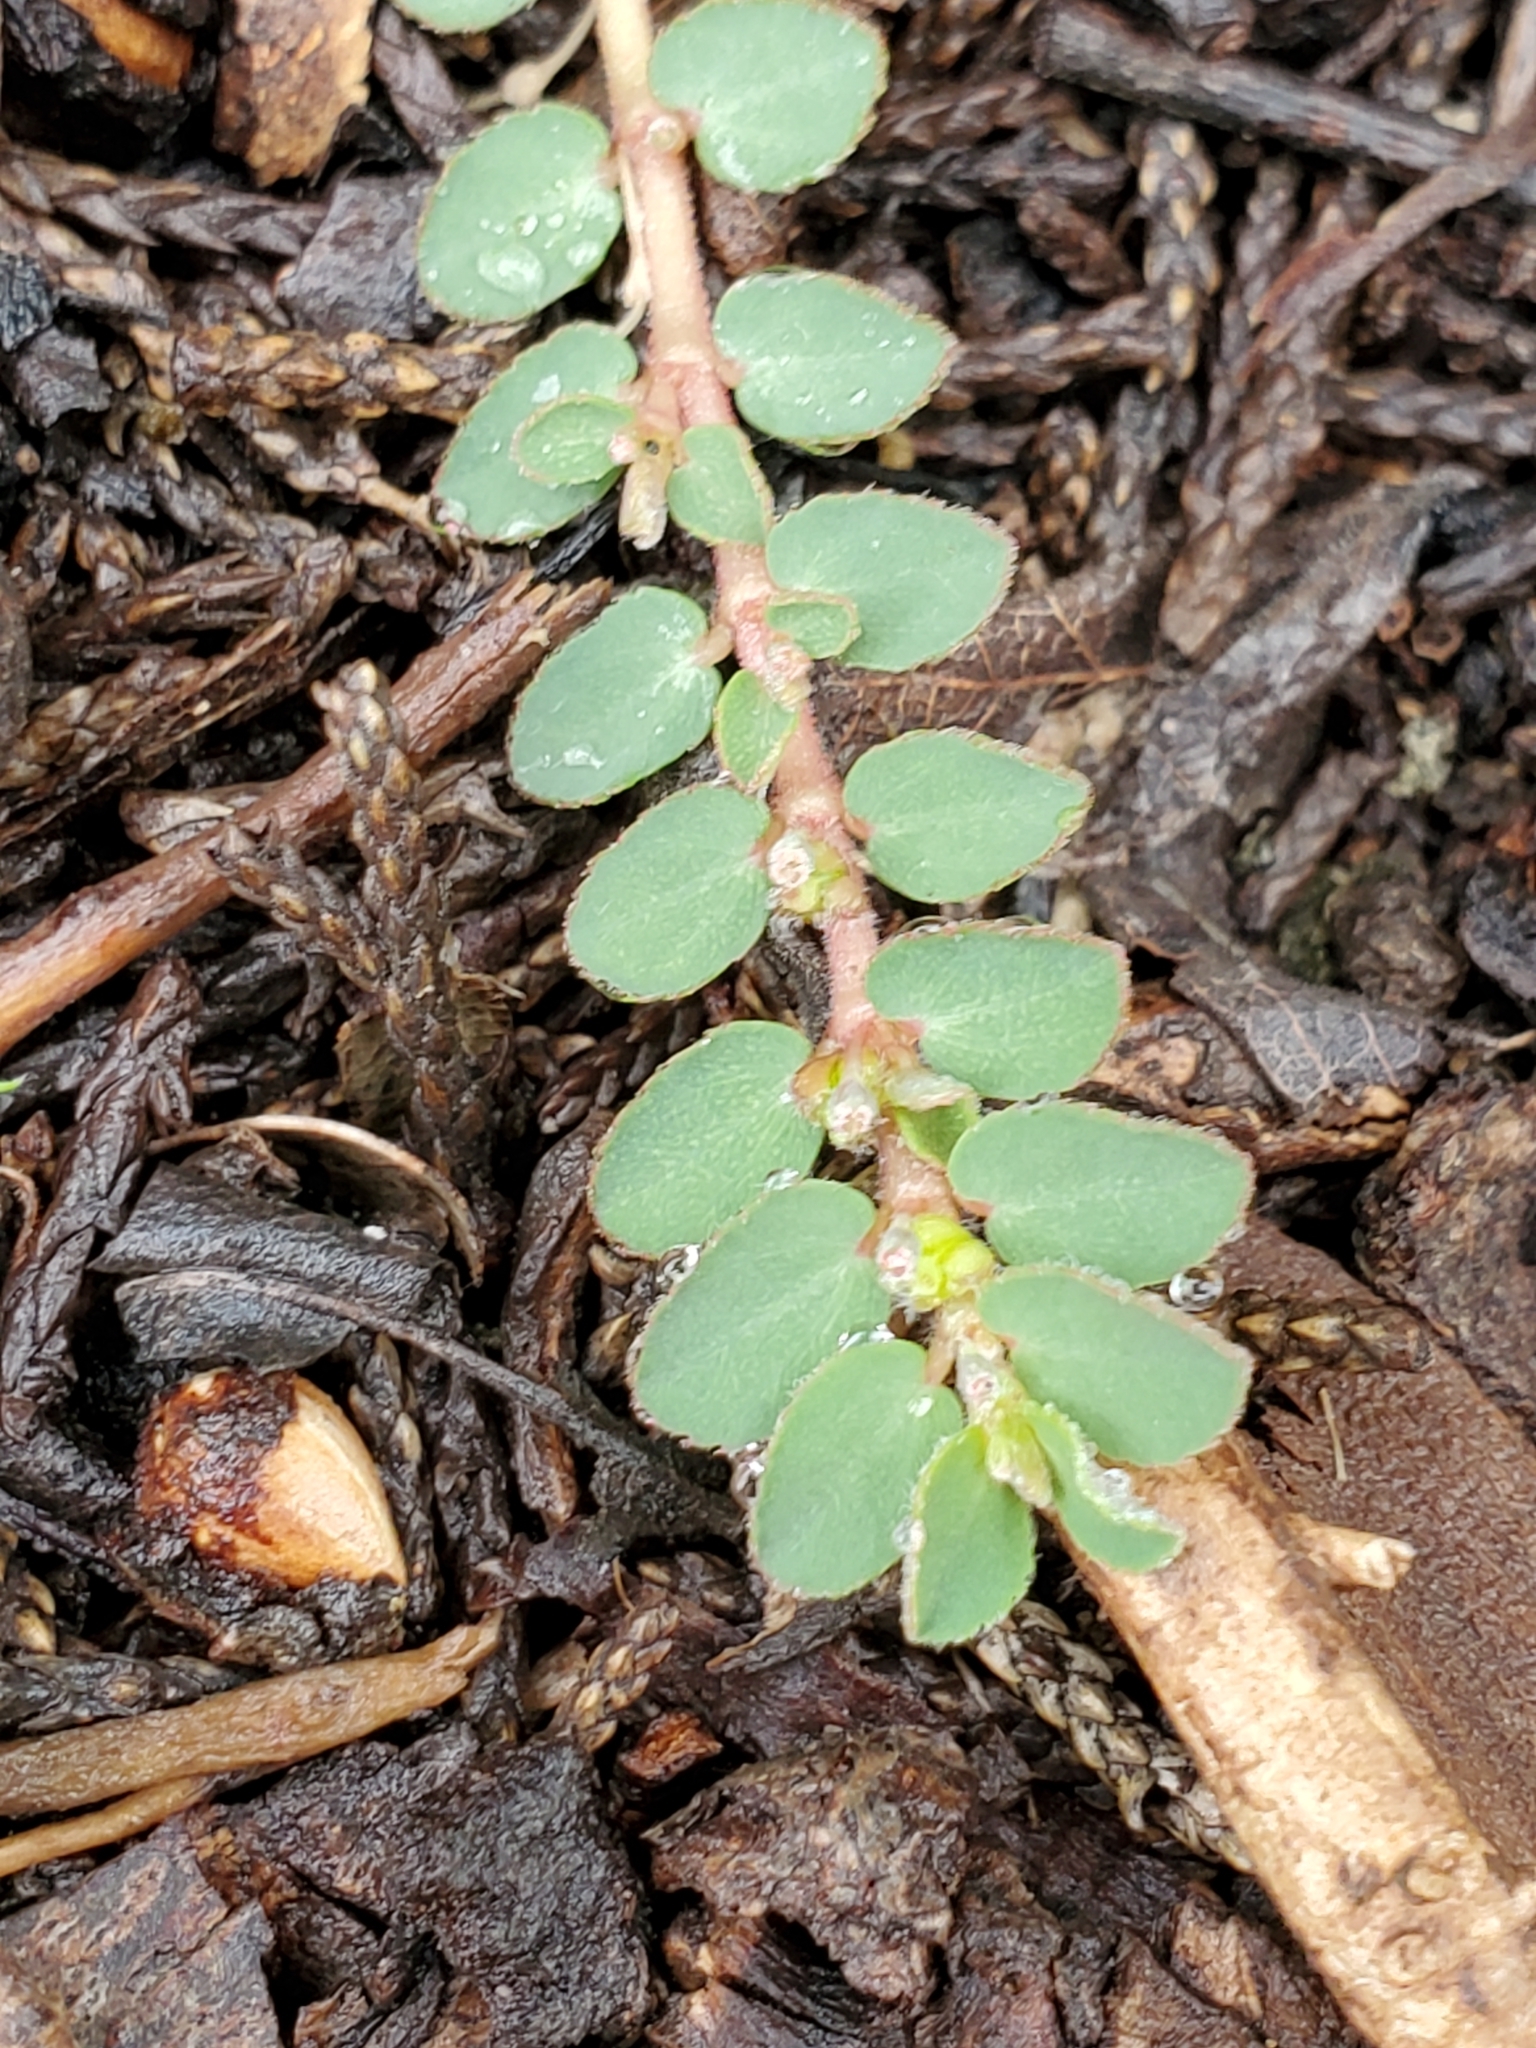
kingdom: Plantae
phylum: Tracheophyta
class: Magnoliopsida
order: Malpighiales
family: Euphorbiaceae
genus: Euphorbia
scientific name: Euphorbia prostrata
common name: Prostrate sandmat
